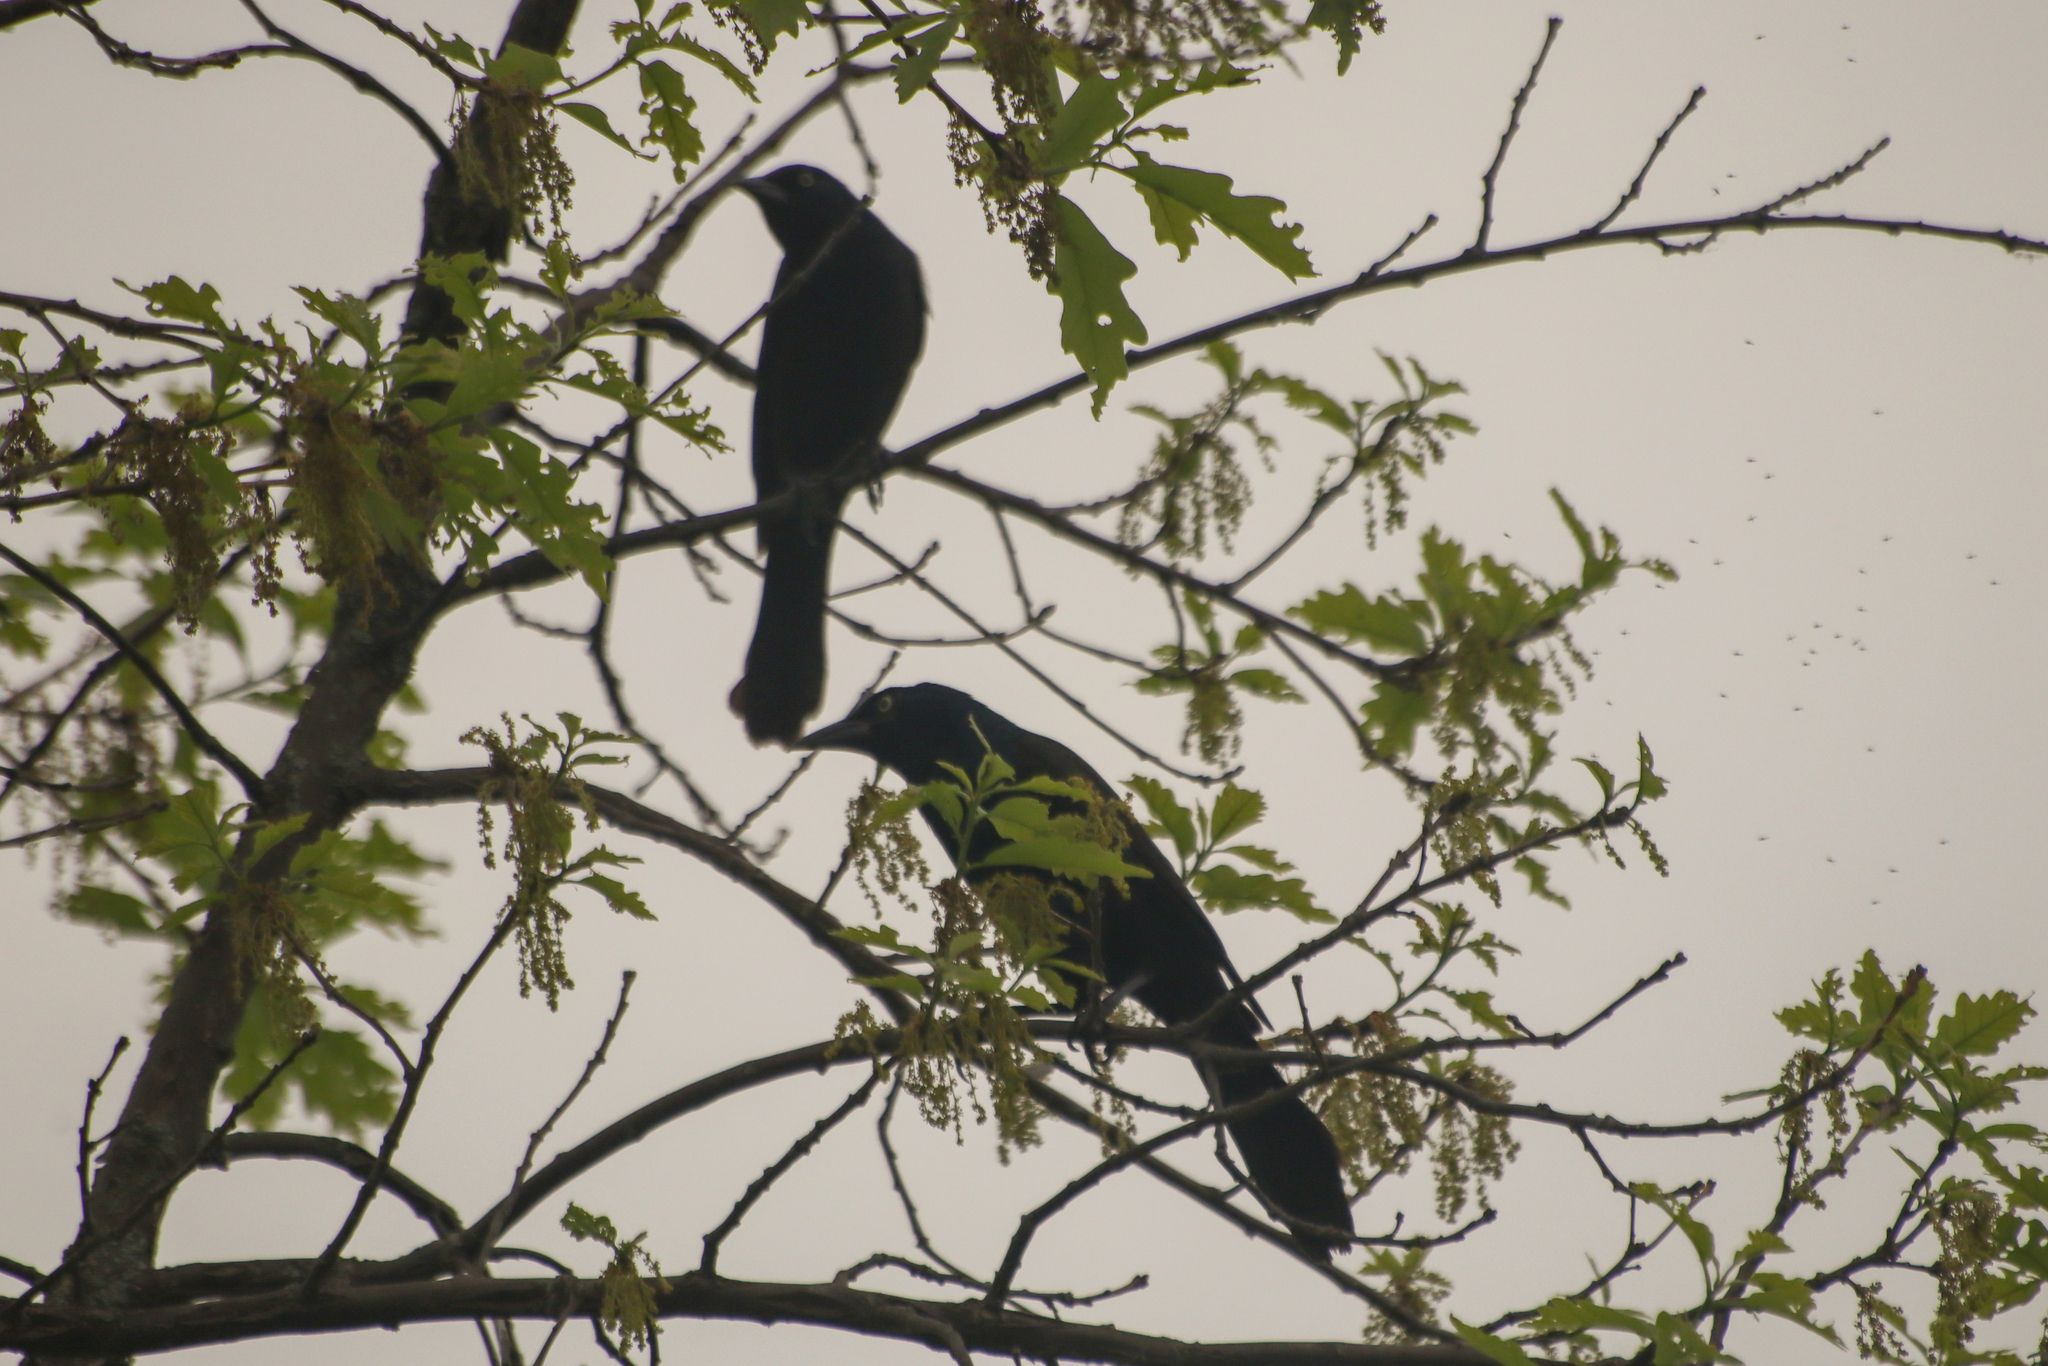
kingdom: Animalia
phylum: Chordata
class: Aves
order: Passeriformes
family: Icteridae
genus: Quiscalus
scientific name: Quiscalus quiscula
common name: Common grackle
